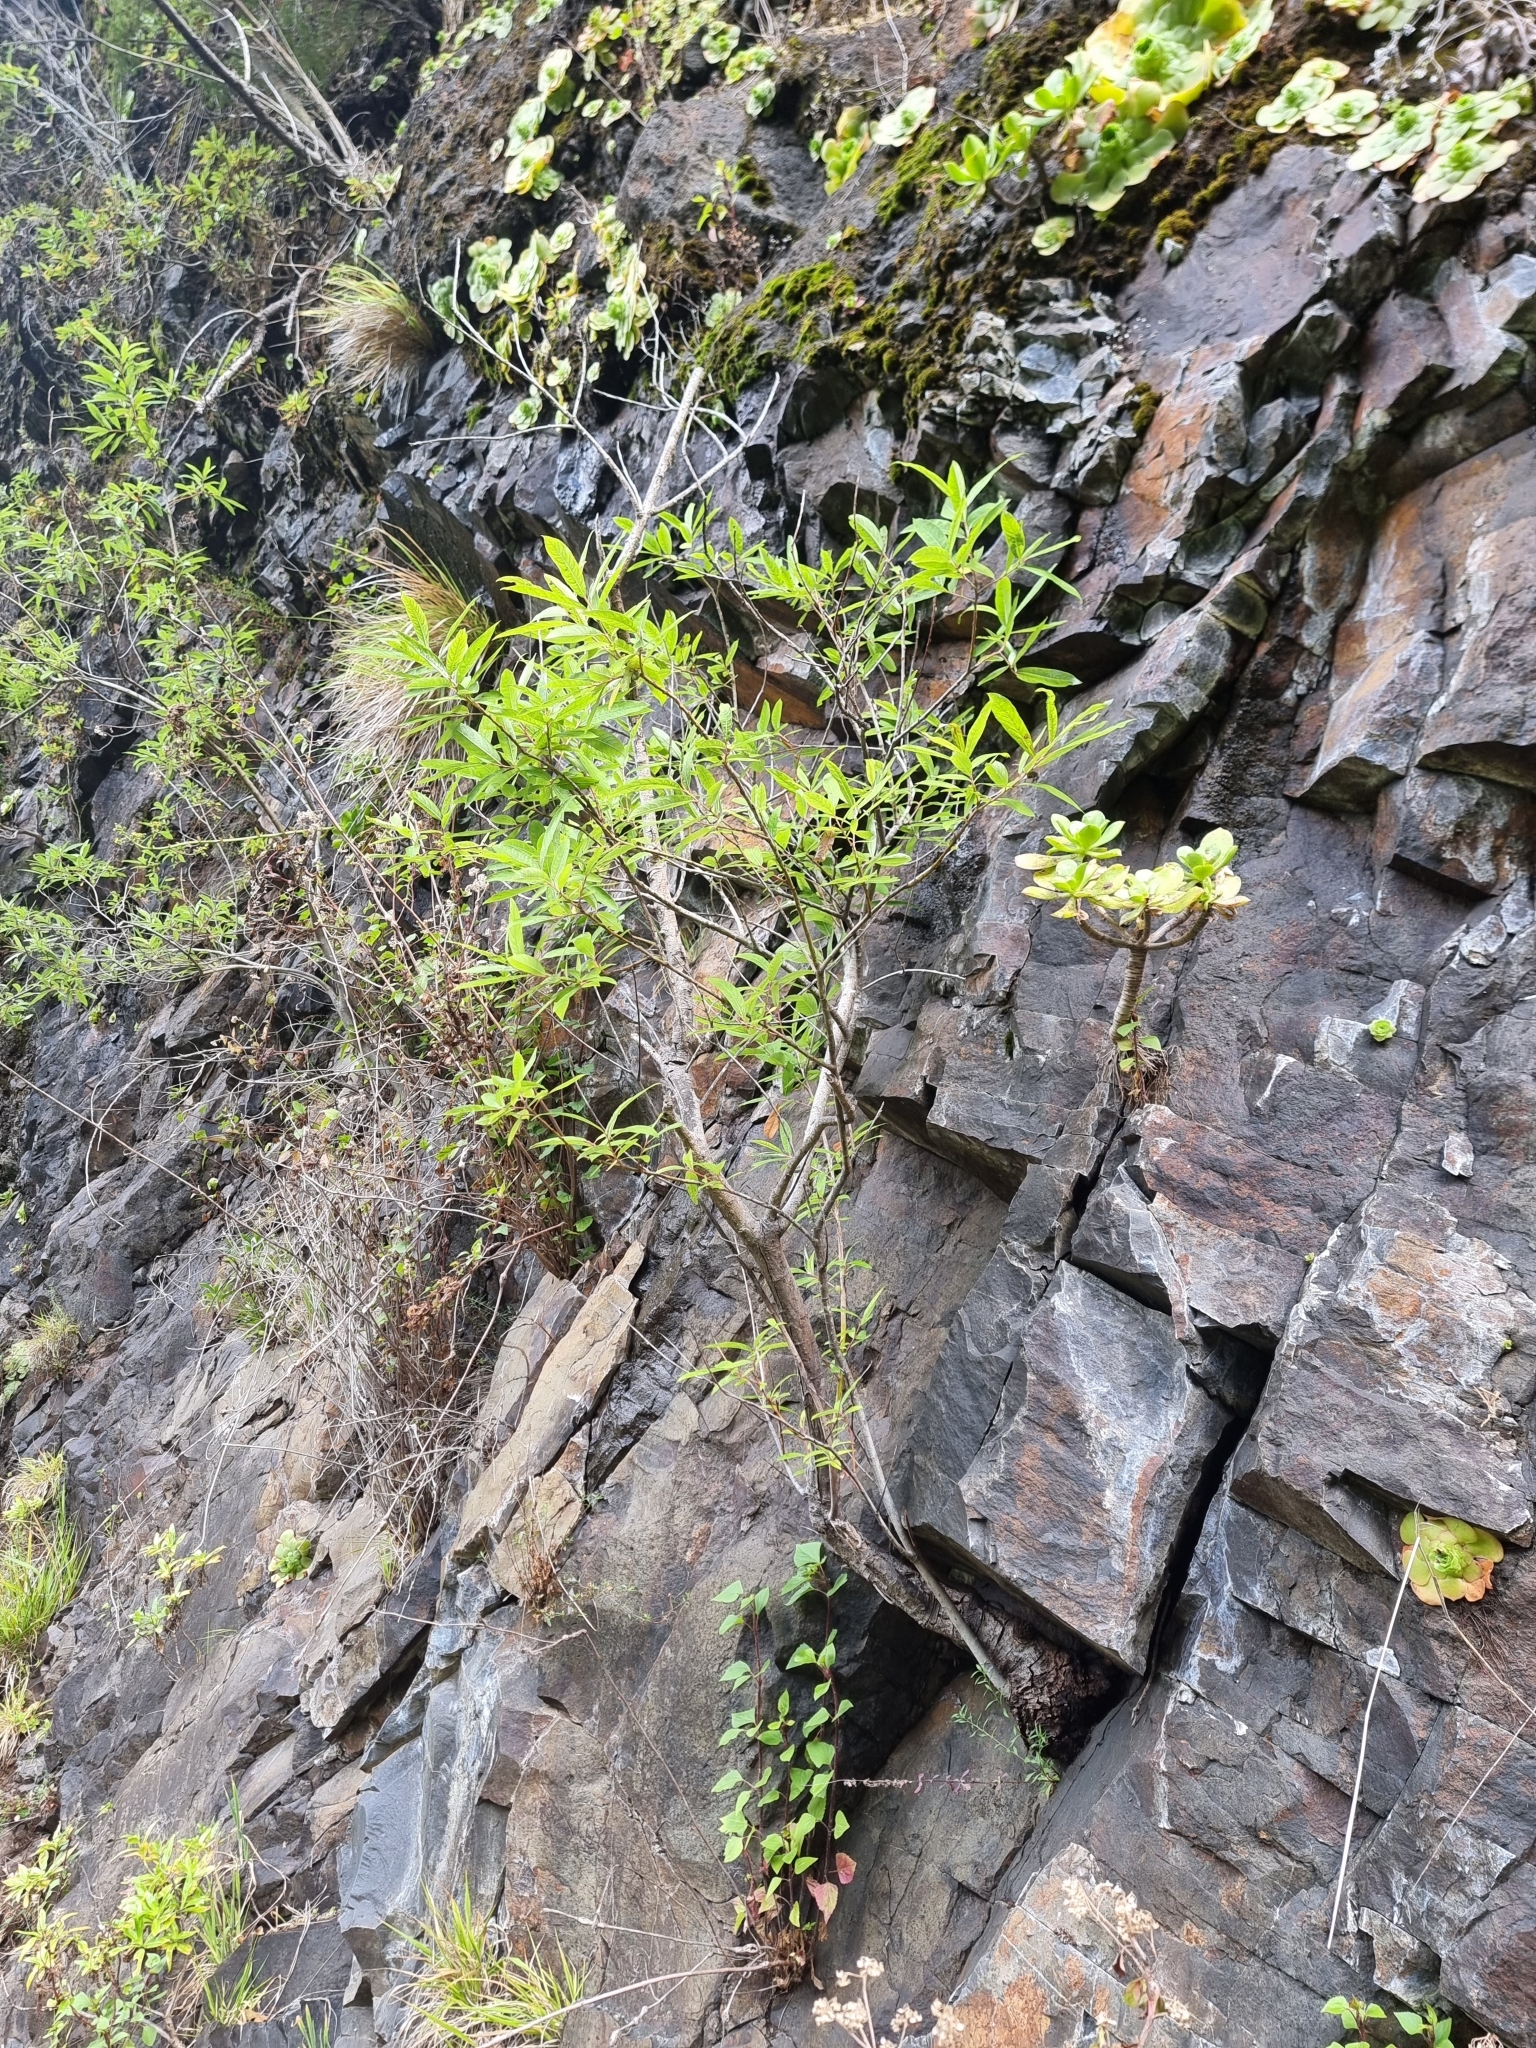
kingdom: Plantae
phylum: Tracheophyta
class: Magnoliopsida
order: Malpighiales
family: Salicaceae
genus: Salix
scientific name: Salix canariensis
